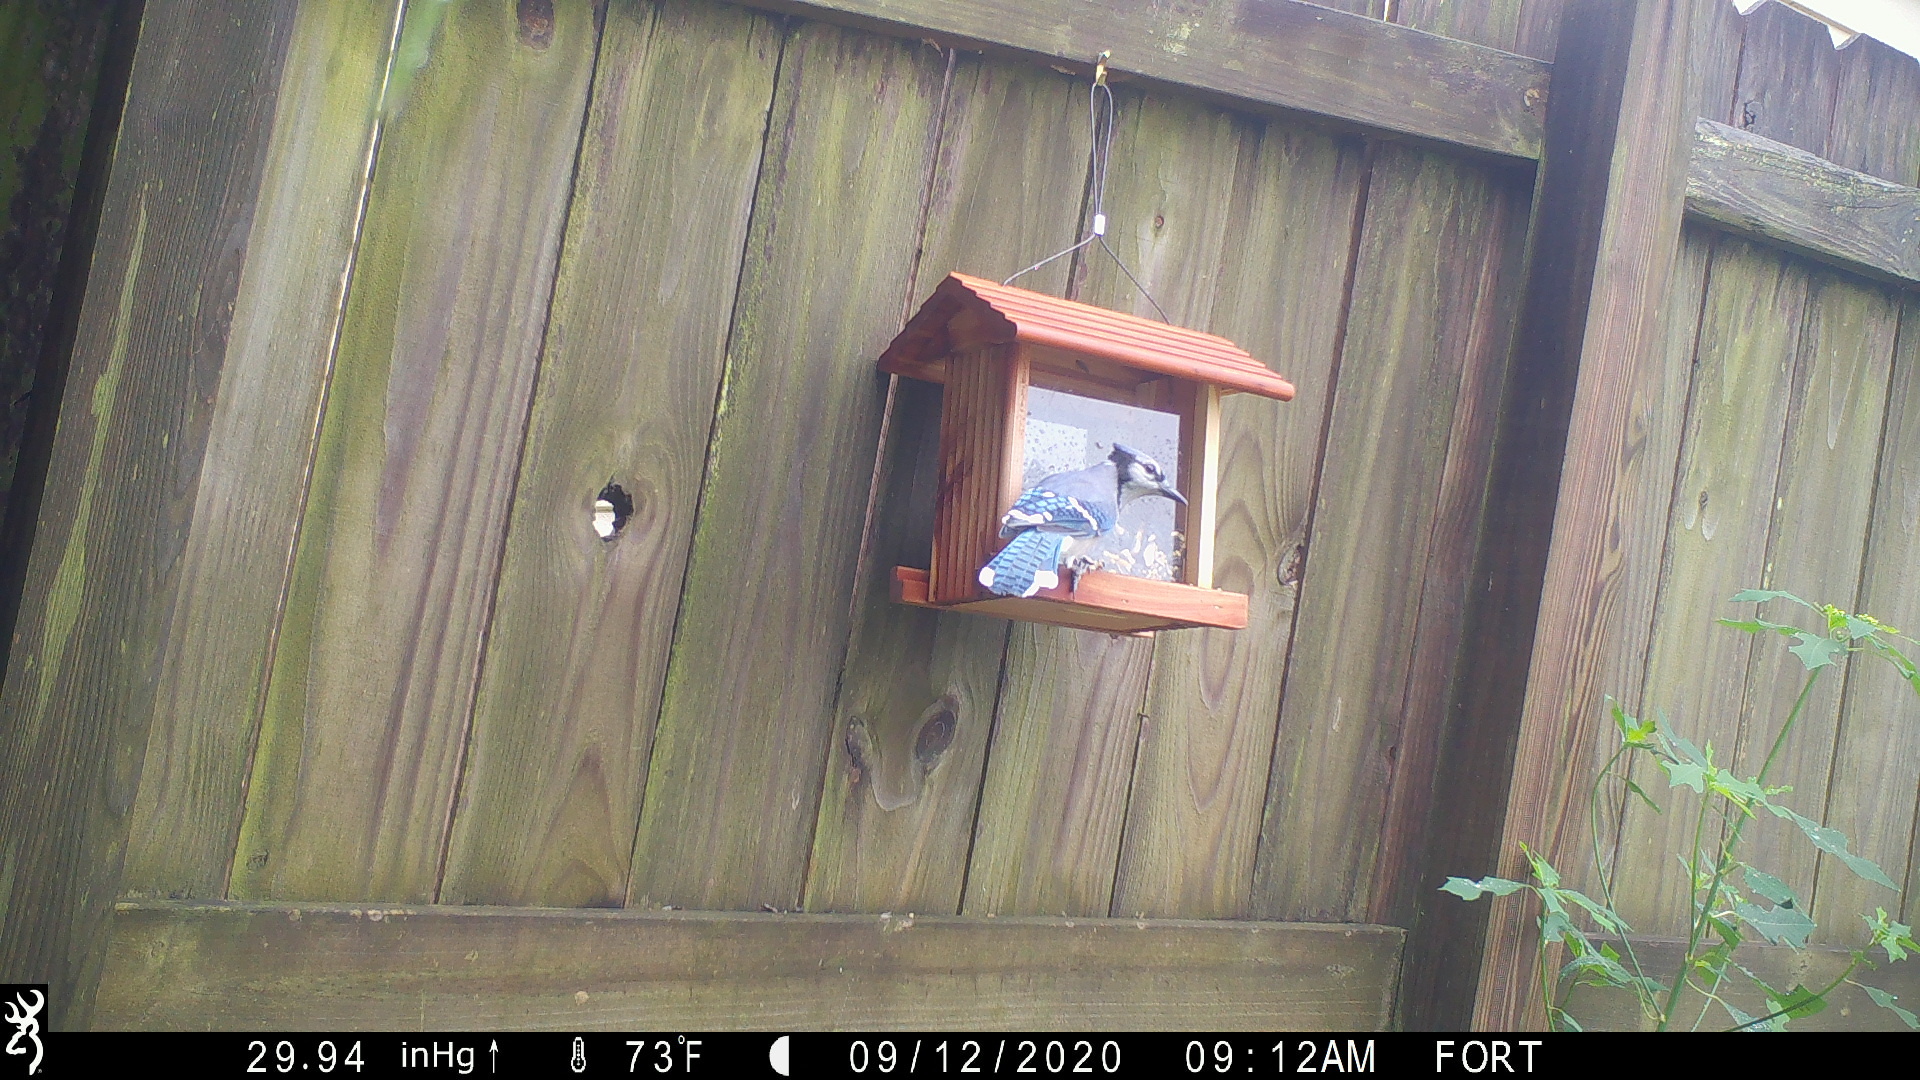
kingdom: Animalia
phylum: Chordata
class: Aves
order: Passeriformes
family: Corvidae
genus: Cyanocitta
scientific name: Cyanocitta cristata
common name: Blue jay
